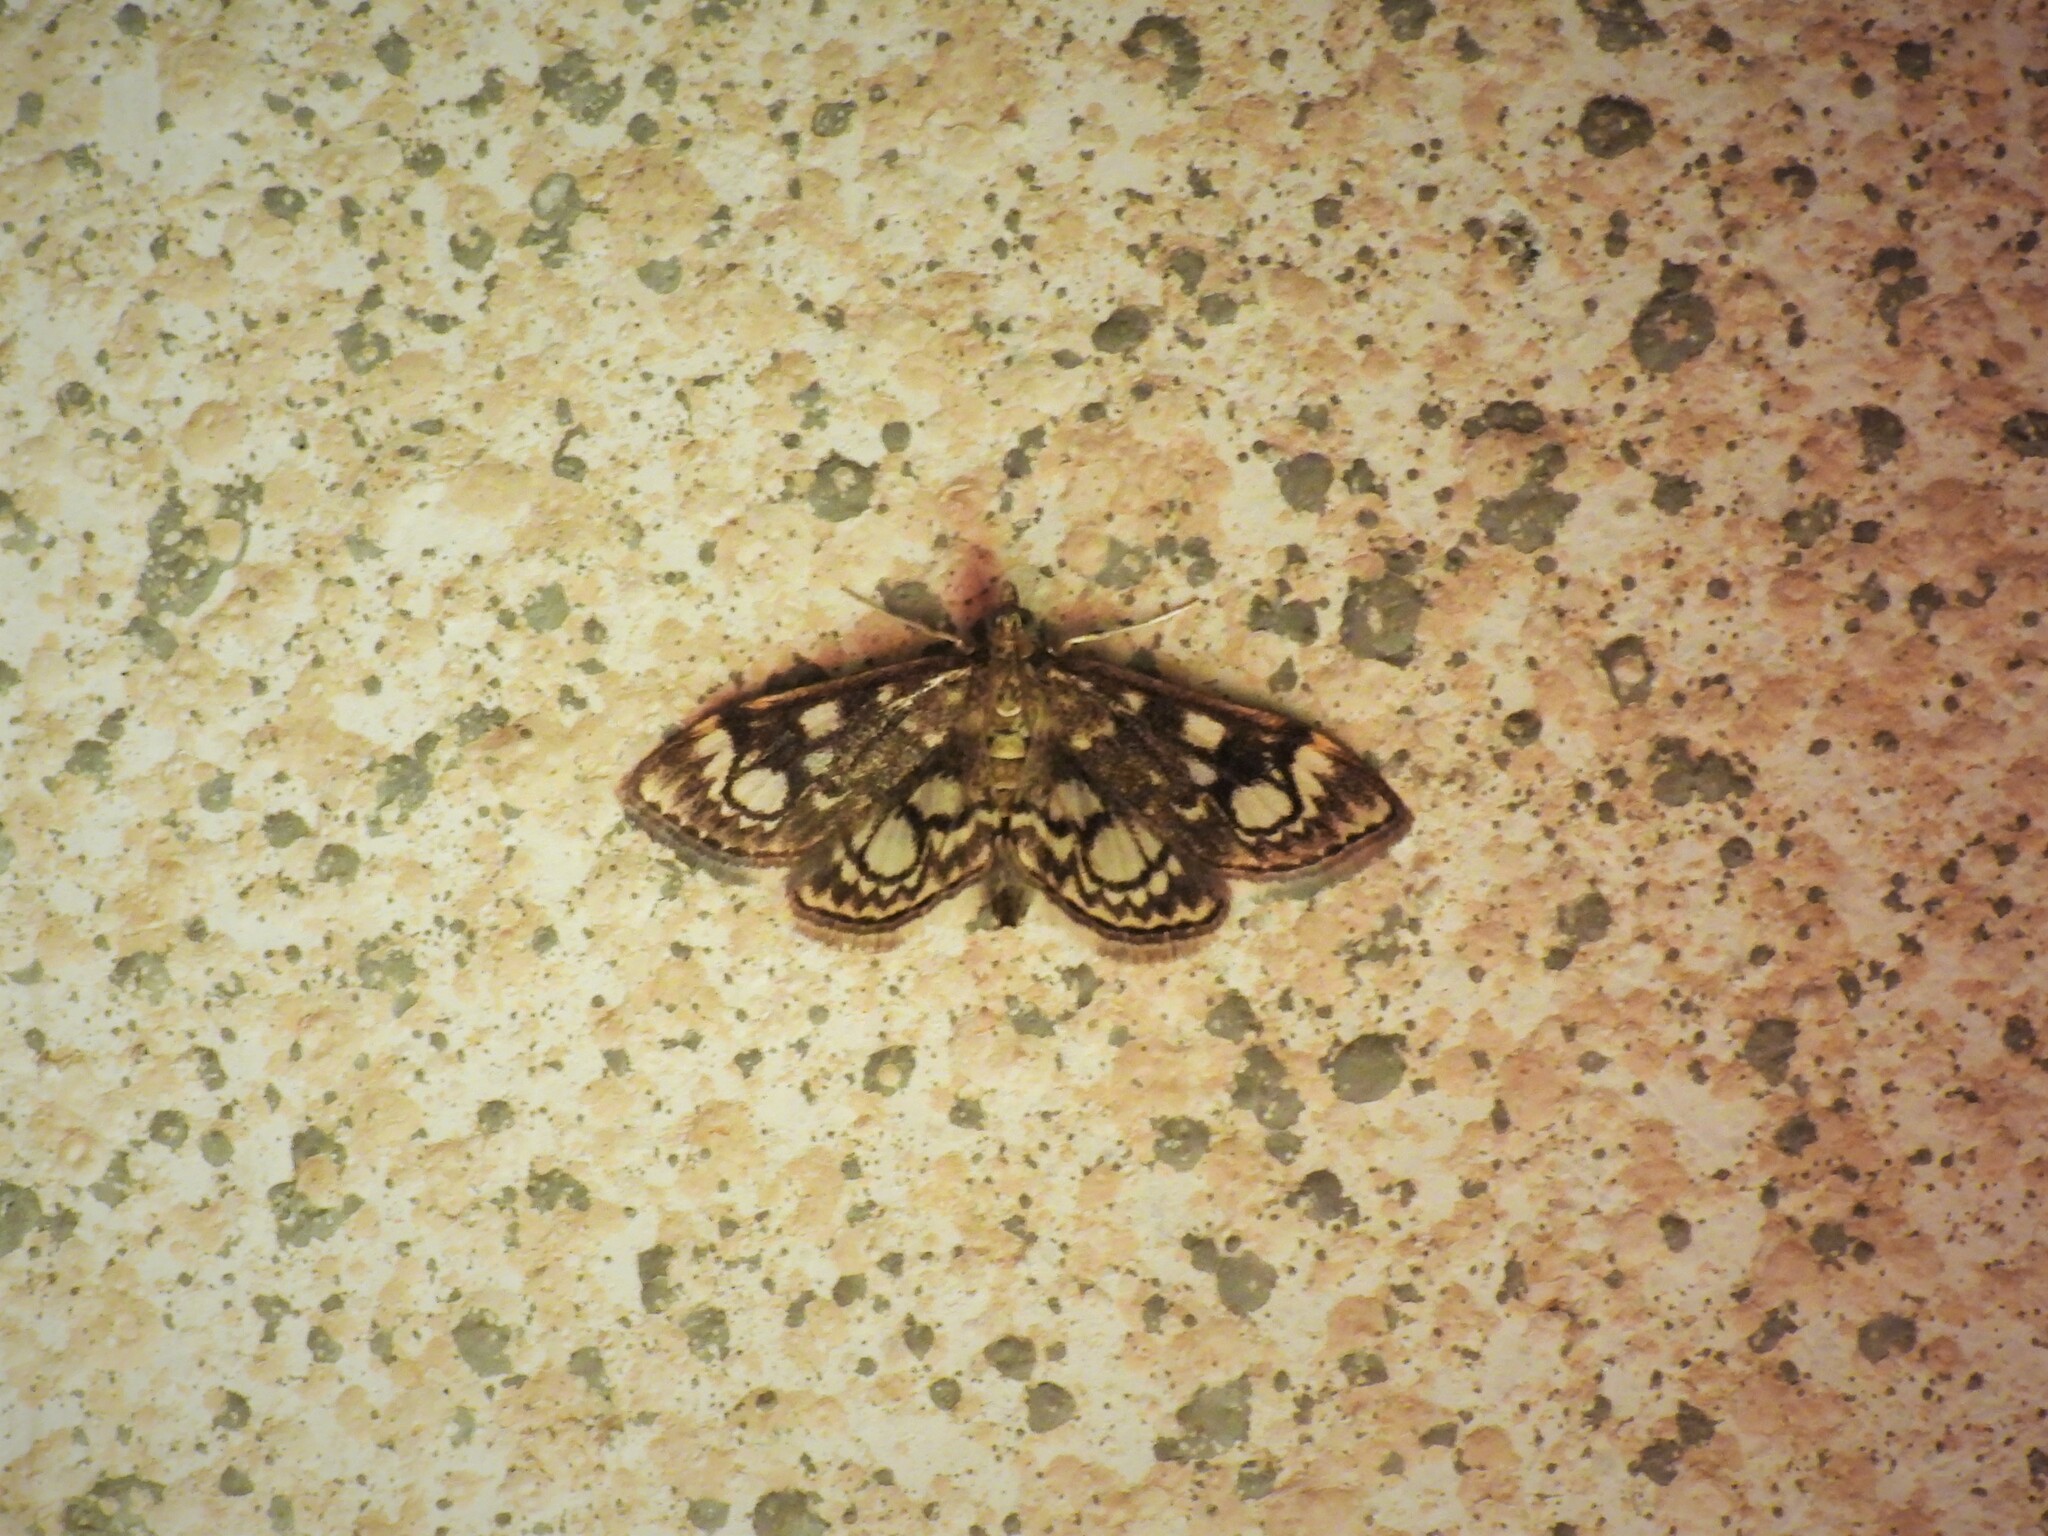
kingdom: Animalia
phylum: Arthropoda
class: Insecta
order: Lepidoptera
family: Crambidae
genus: Anania
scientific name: Anania coronata
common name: Elder pearl
